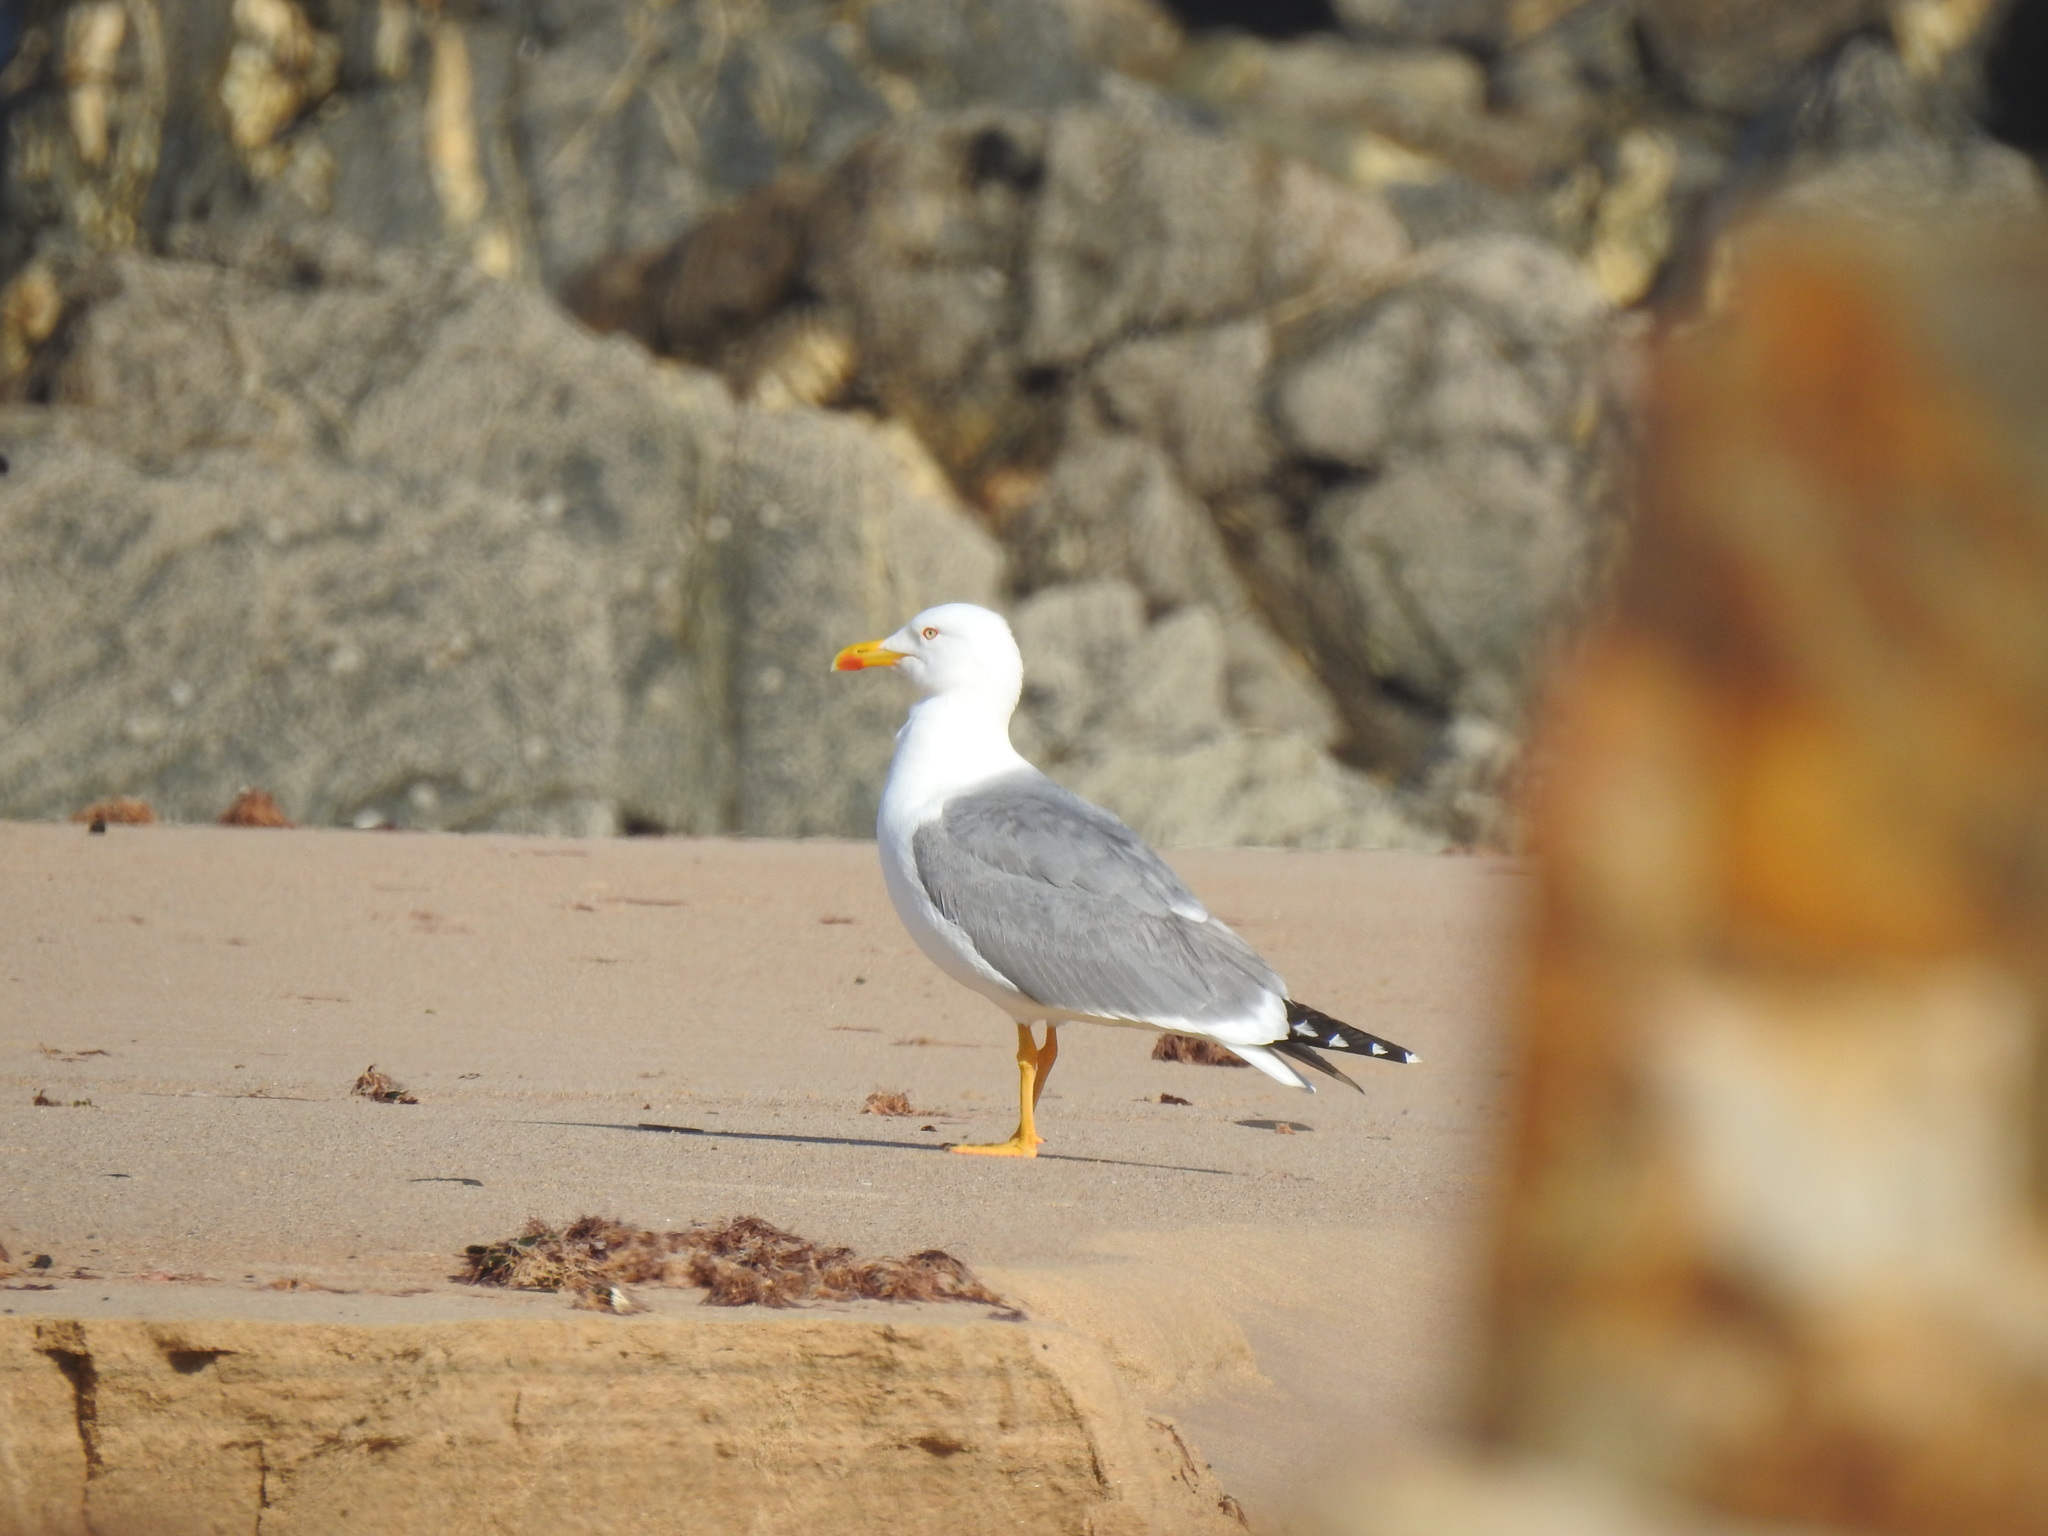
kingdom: Animalia
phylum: Chordata
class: Aves
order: Charadriiformes
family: Laridae
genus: Larus
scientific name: Larus michahellis
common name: Yellow-legged gull
